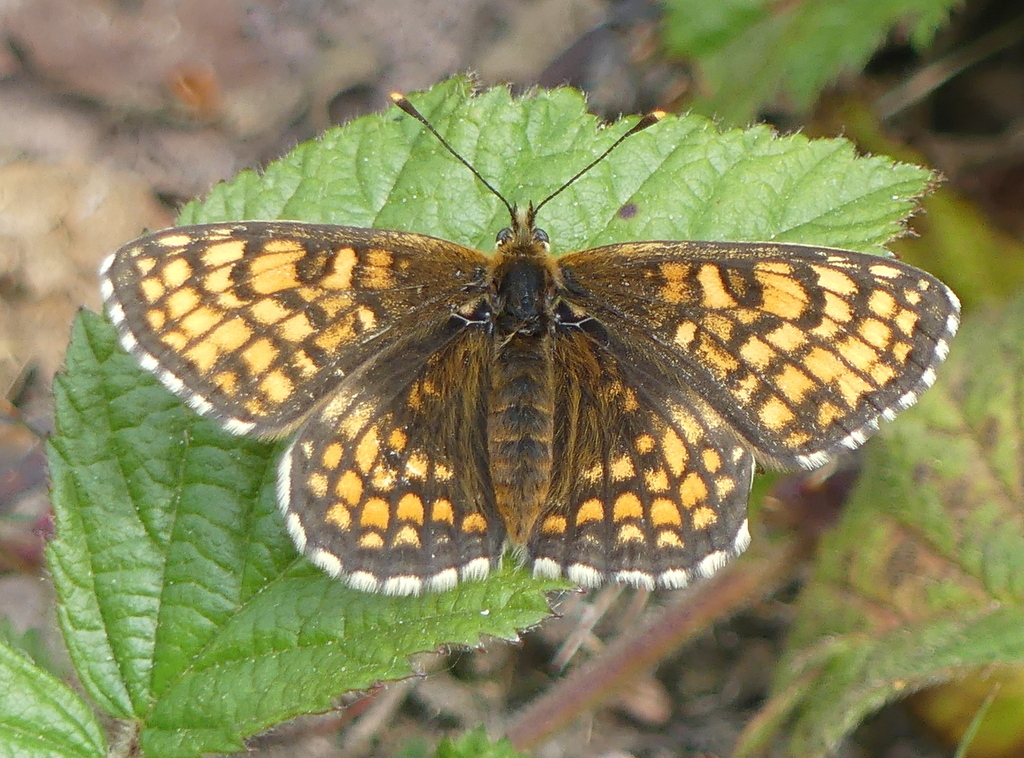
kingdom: Animalia
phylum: Arthropoda
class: Insecta
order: Lepidoptera
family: Nymphalidae
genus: Melitaea
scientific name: Melitaea athalia
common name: Heath fritillary
